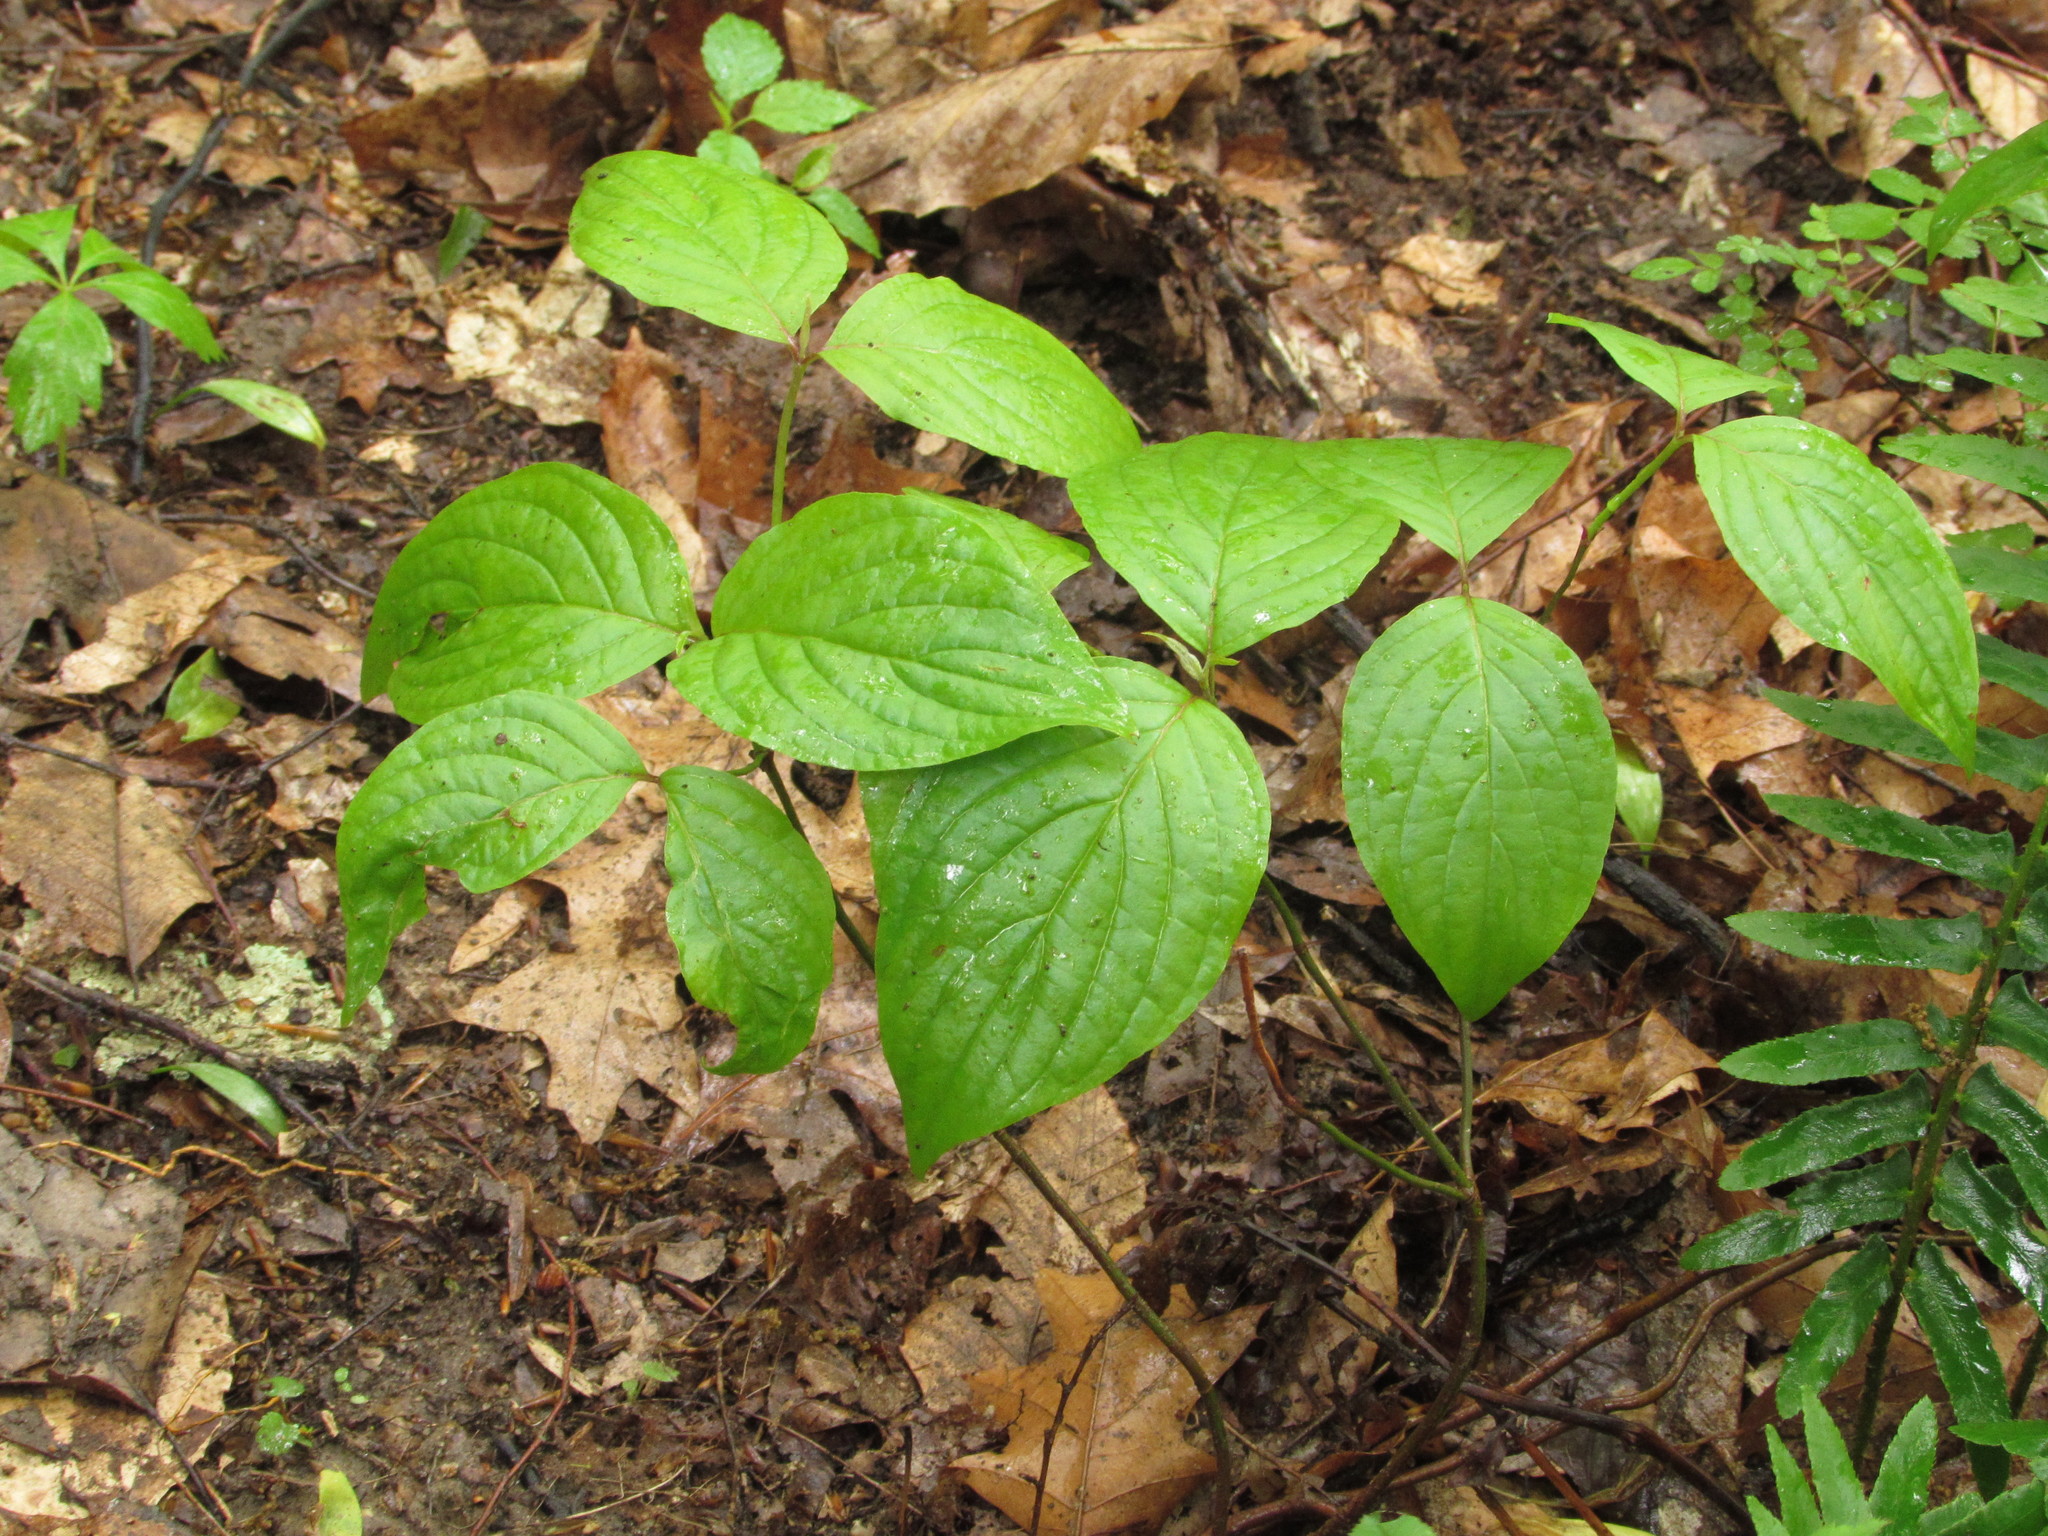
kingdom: Plantae
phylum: Tracheophyta
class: Magnoliopsida
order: Cornales
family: Cornaceae
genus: Cornus
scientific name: Cornus florida
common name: Flowering dogwood
